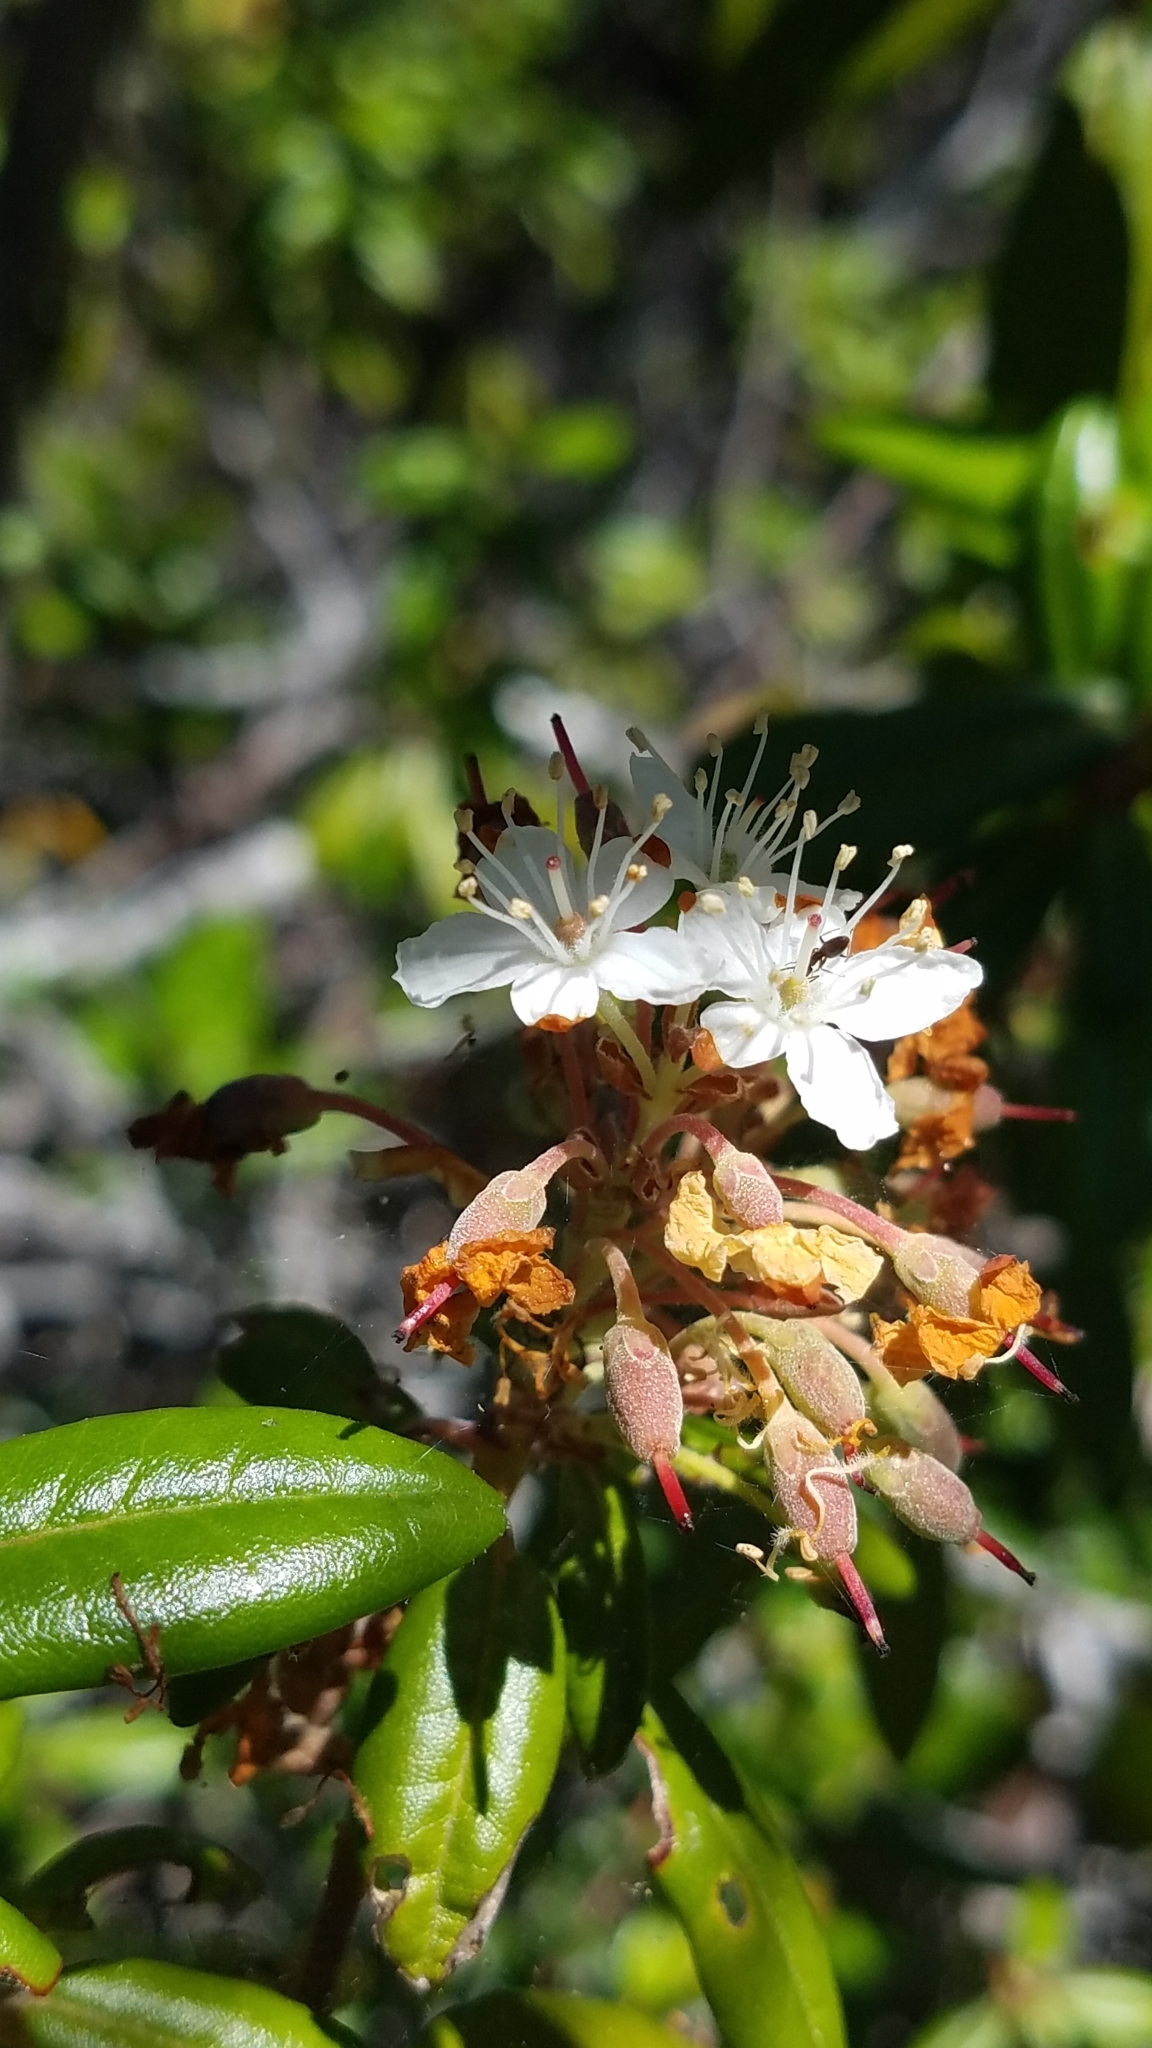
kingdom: Plantae
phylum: Tracheophyta
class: Magnoliopsida
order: Ericales
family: Ericaceae
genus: Rhododendron
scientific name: Rhododendron columbianum
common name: Western labrador tea
